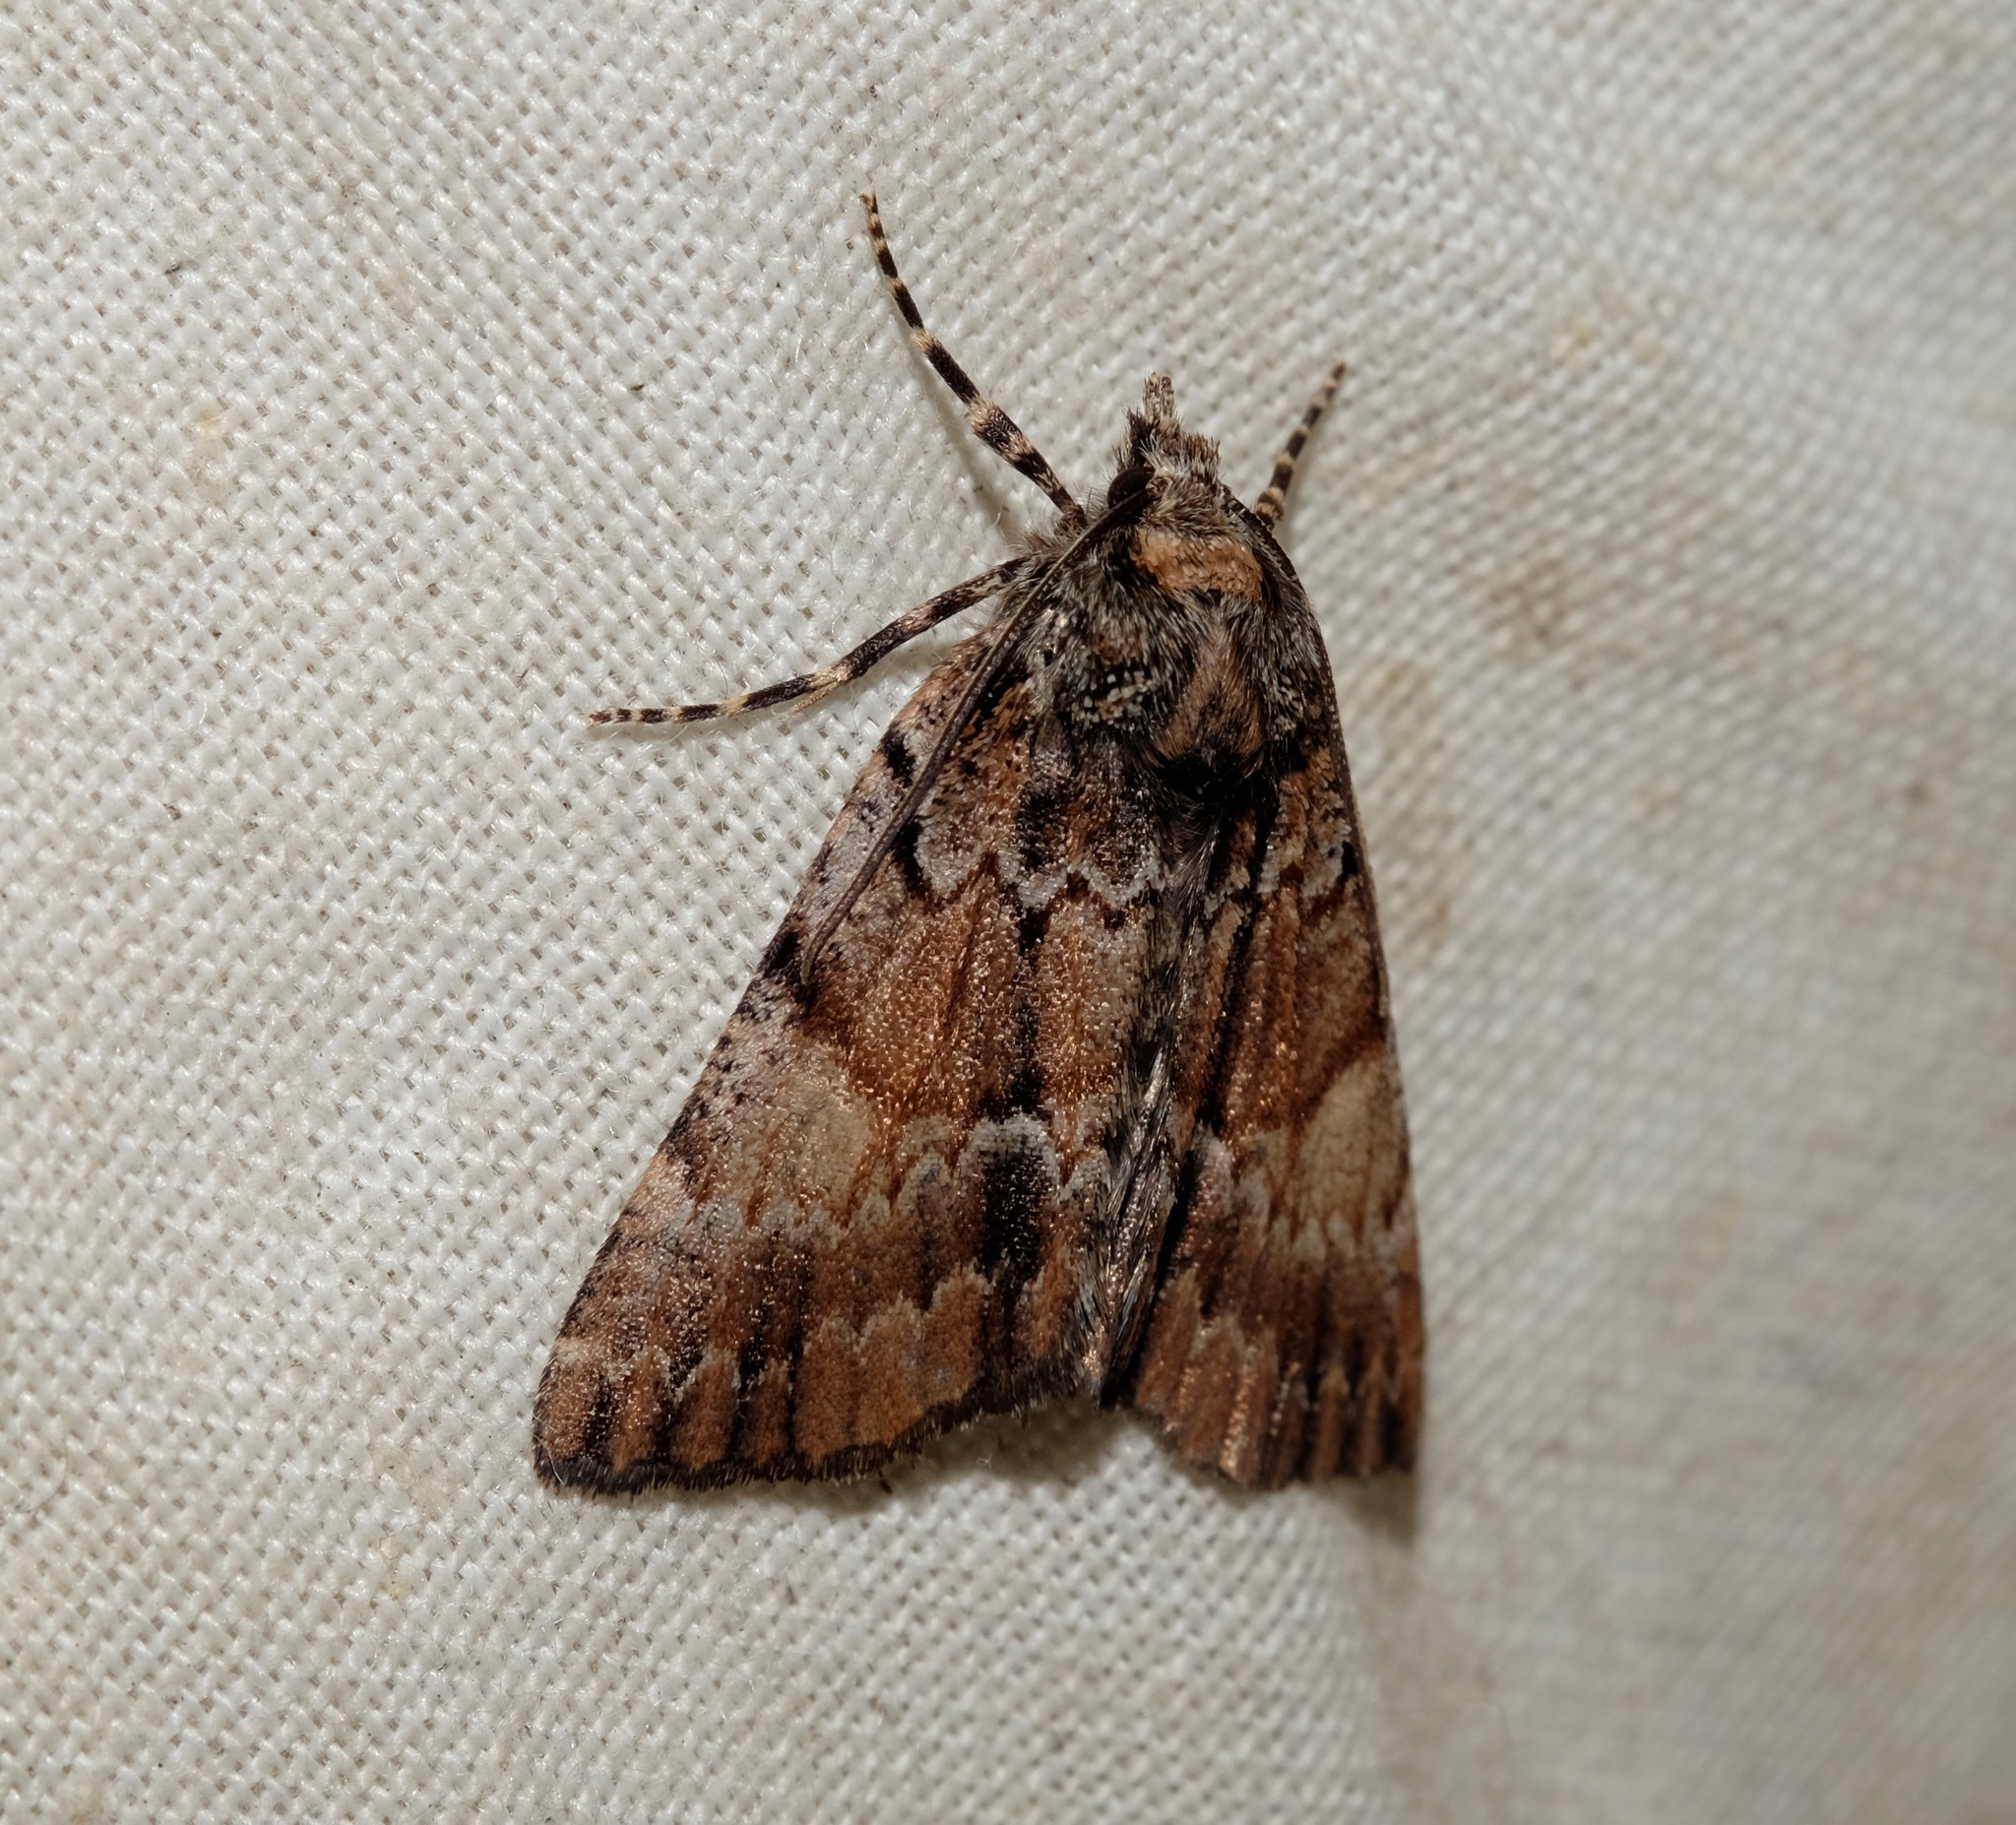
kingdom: Animalia
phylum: Arthropoda
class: Insecta
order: Lepidoptera
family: Geometridae
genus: Smyriodes
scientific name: Smyriodes
